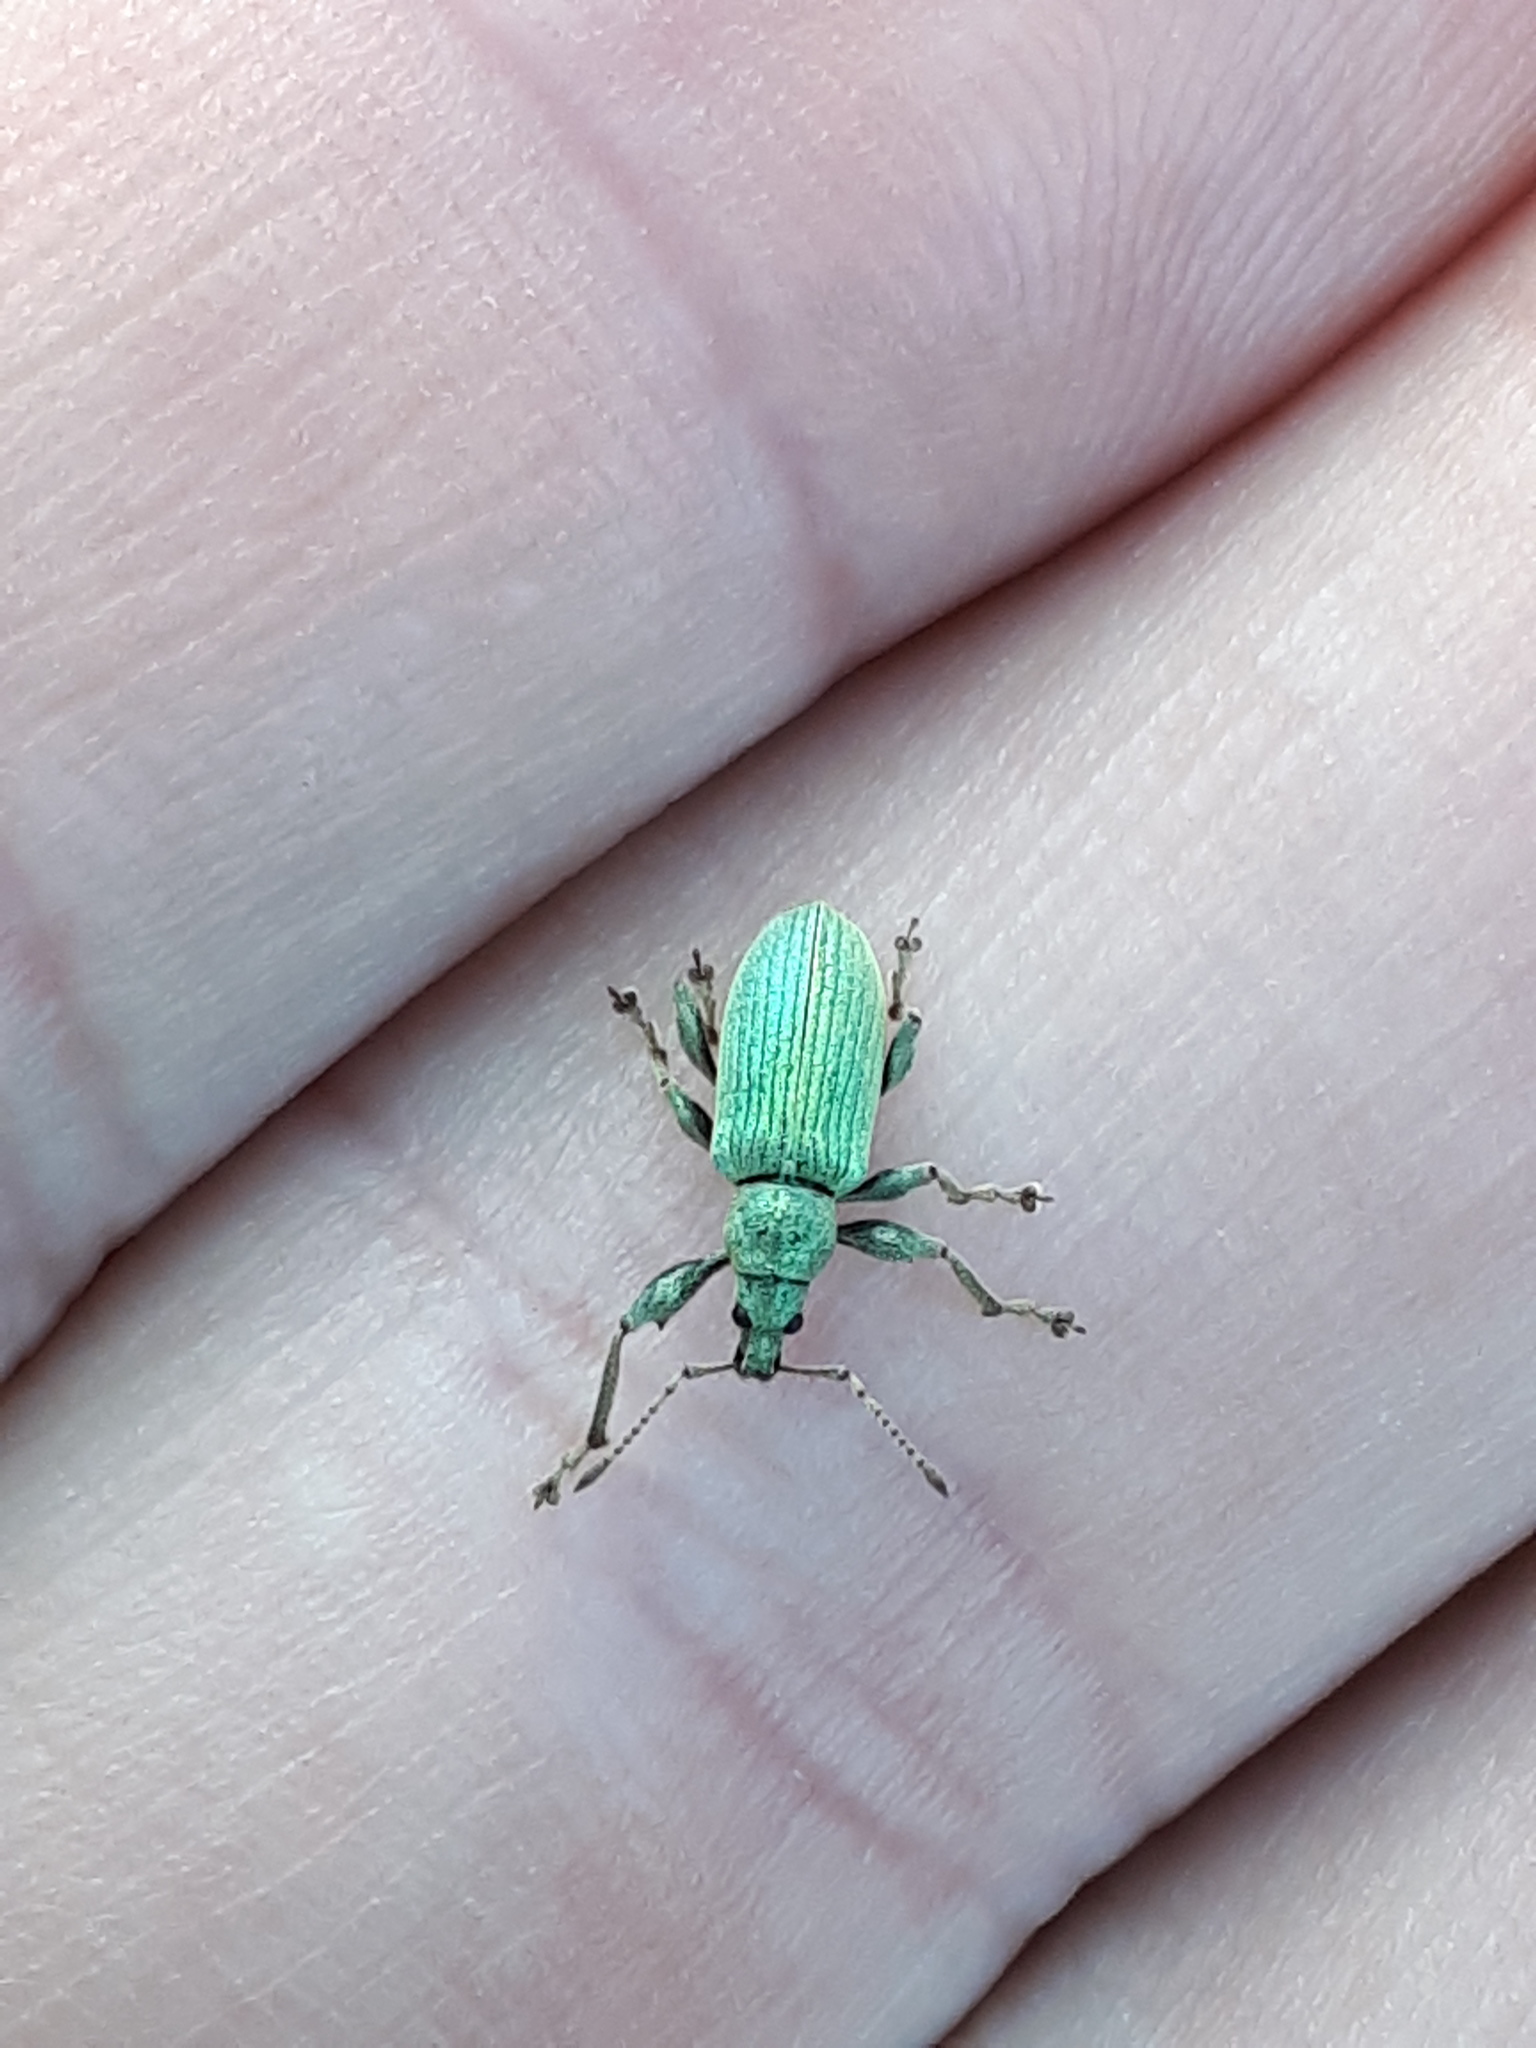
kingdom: Animalia
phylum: Arthropoda
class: Insecta
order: Coleoptera
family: Curculionidae
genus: Phyllobius
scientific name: Phyllobius pomaceus
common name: Green nettle weevil
